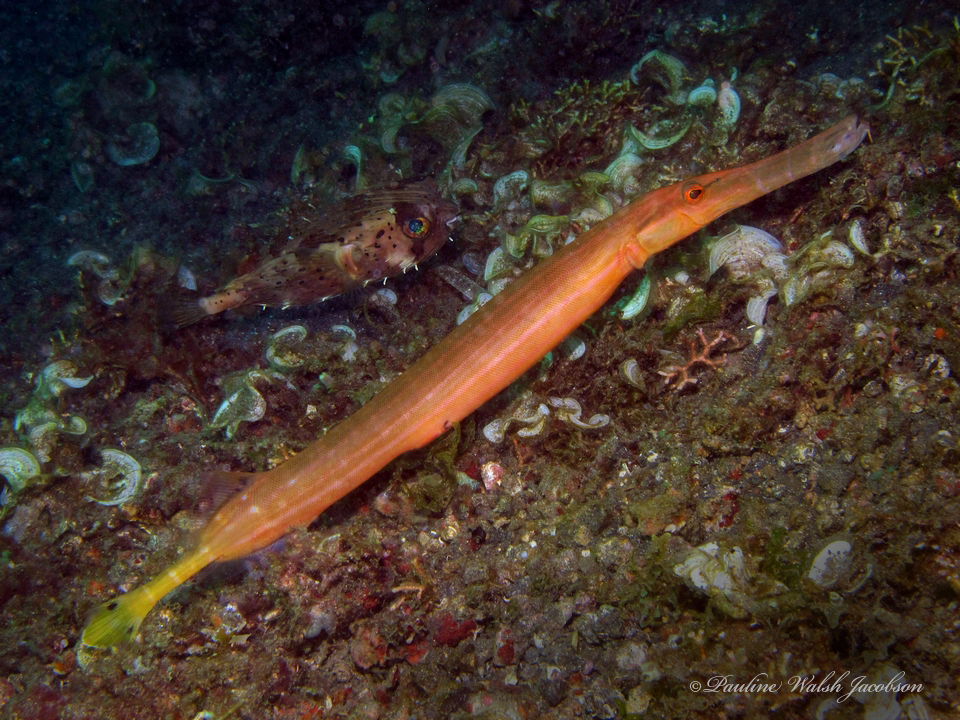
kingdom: Animalia
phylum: Chordata
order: Syngnathiformes
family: Aulostomidae
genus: Aulostomus
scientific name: Aulostomus chinensis
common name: Chinese trumpetfish
